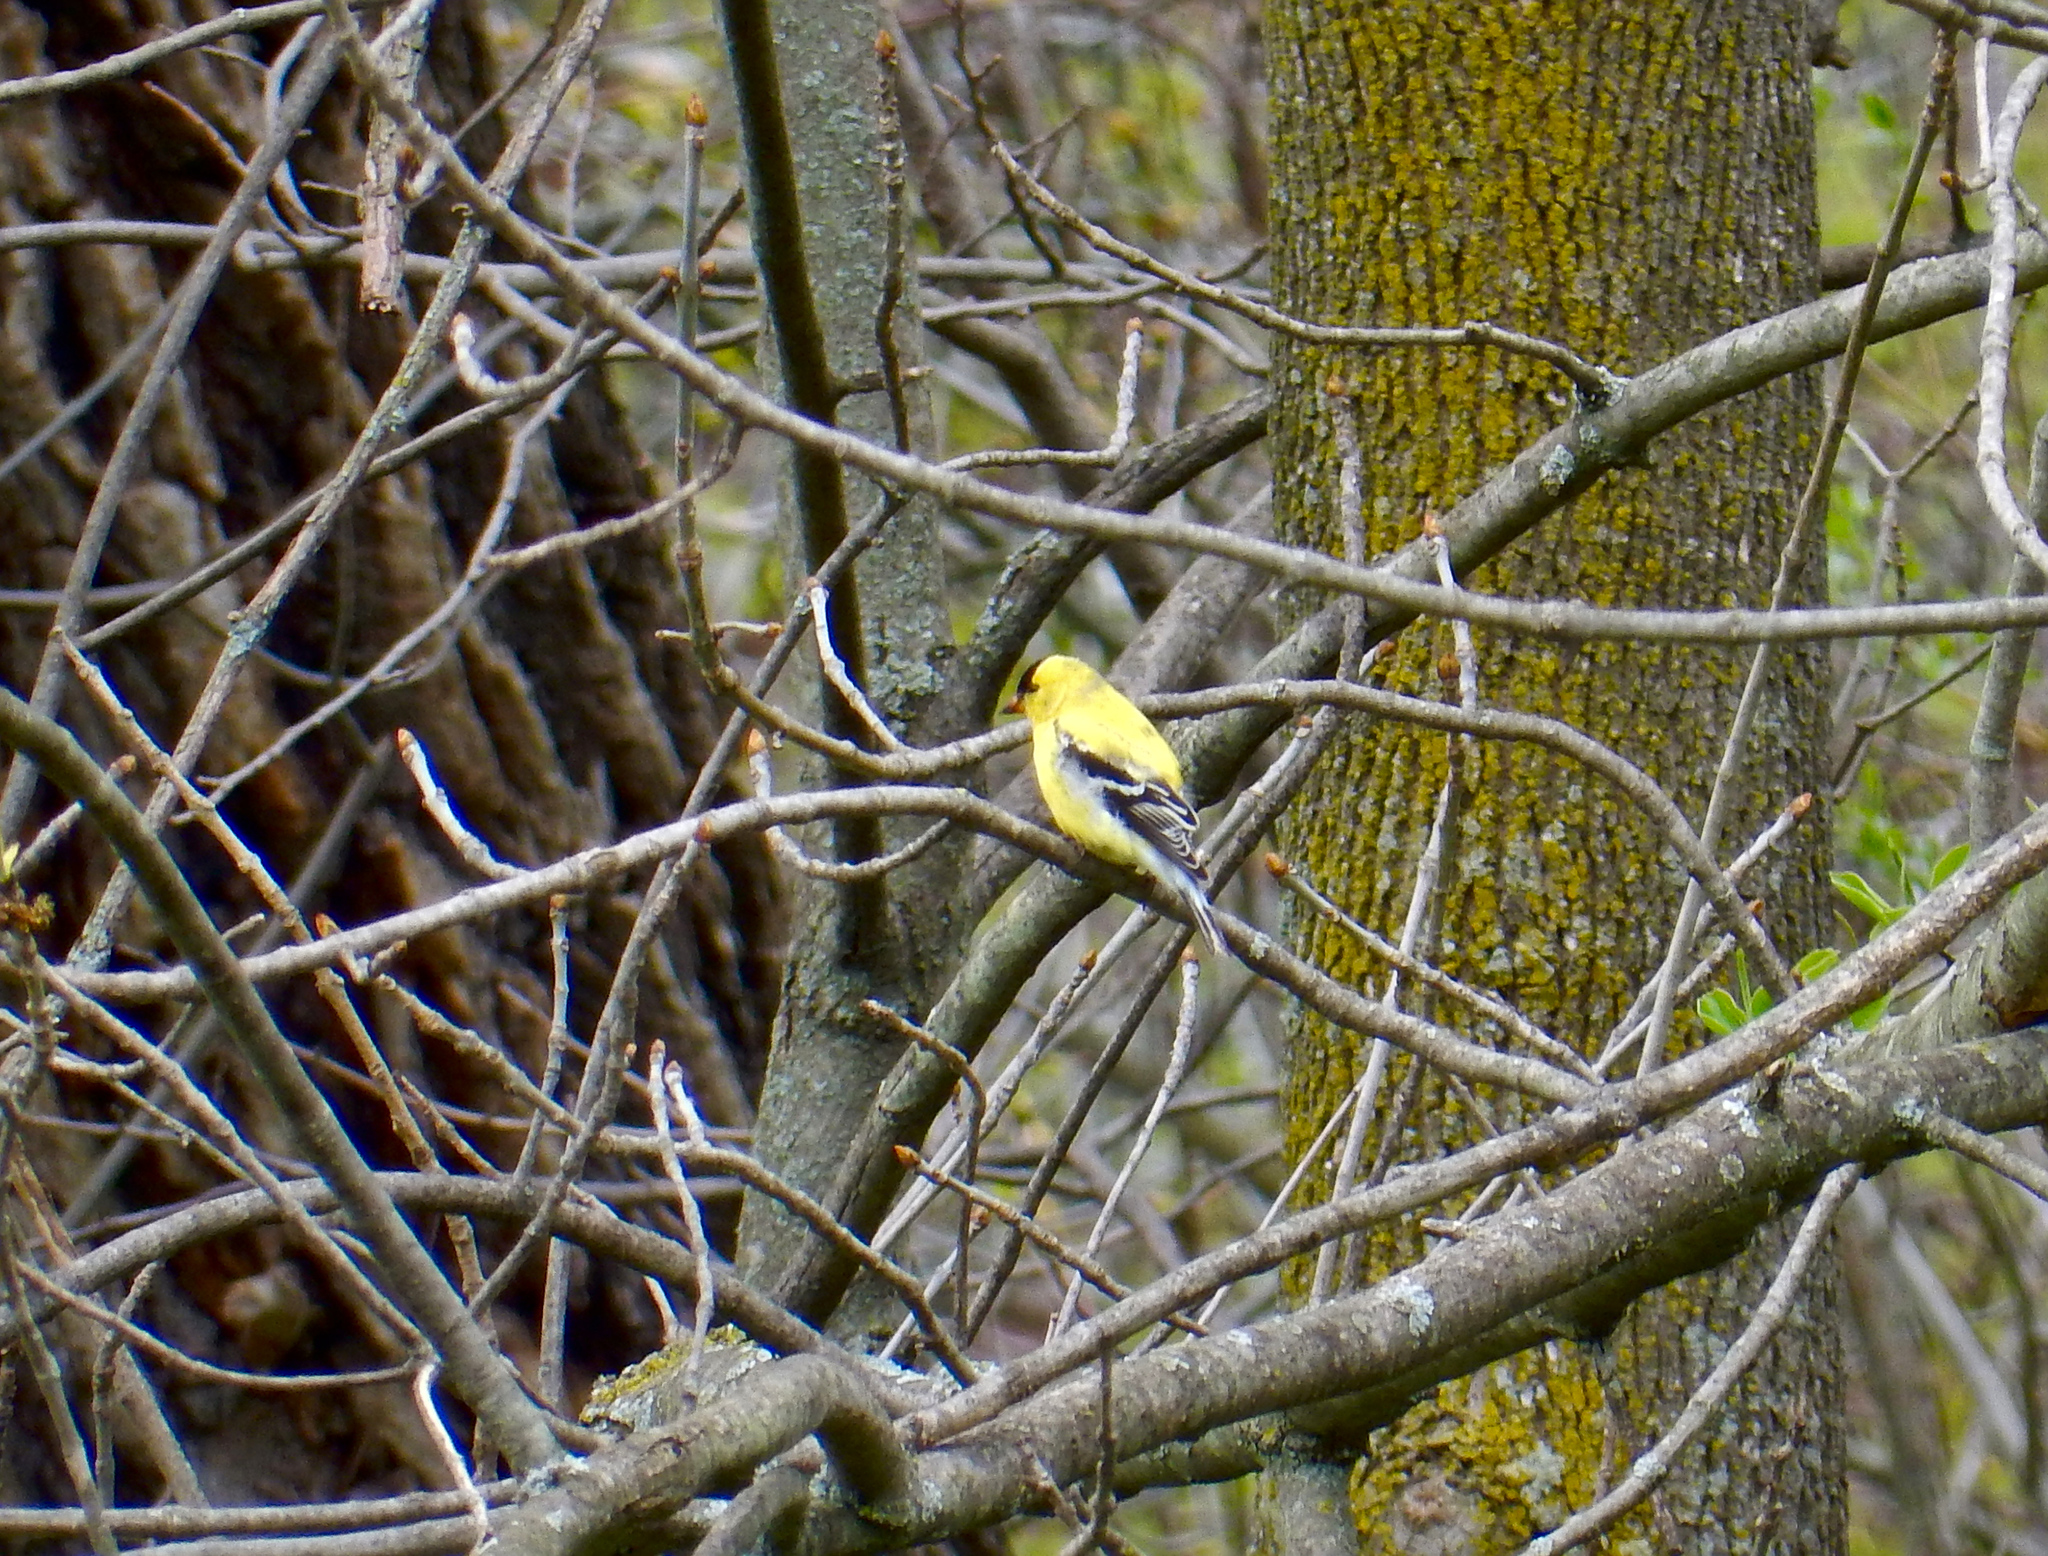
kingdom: Animalia
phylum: Chordata
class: Aves
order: Passeriformes
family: Fringillidae
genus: Spinus
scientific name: Spinus tristis
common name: American goldfinch
